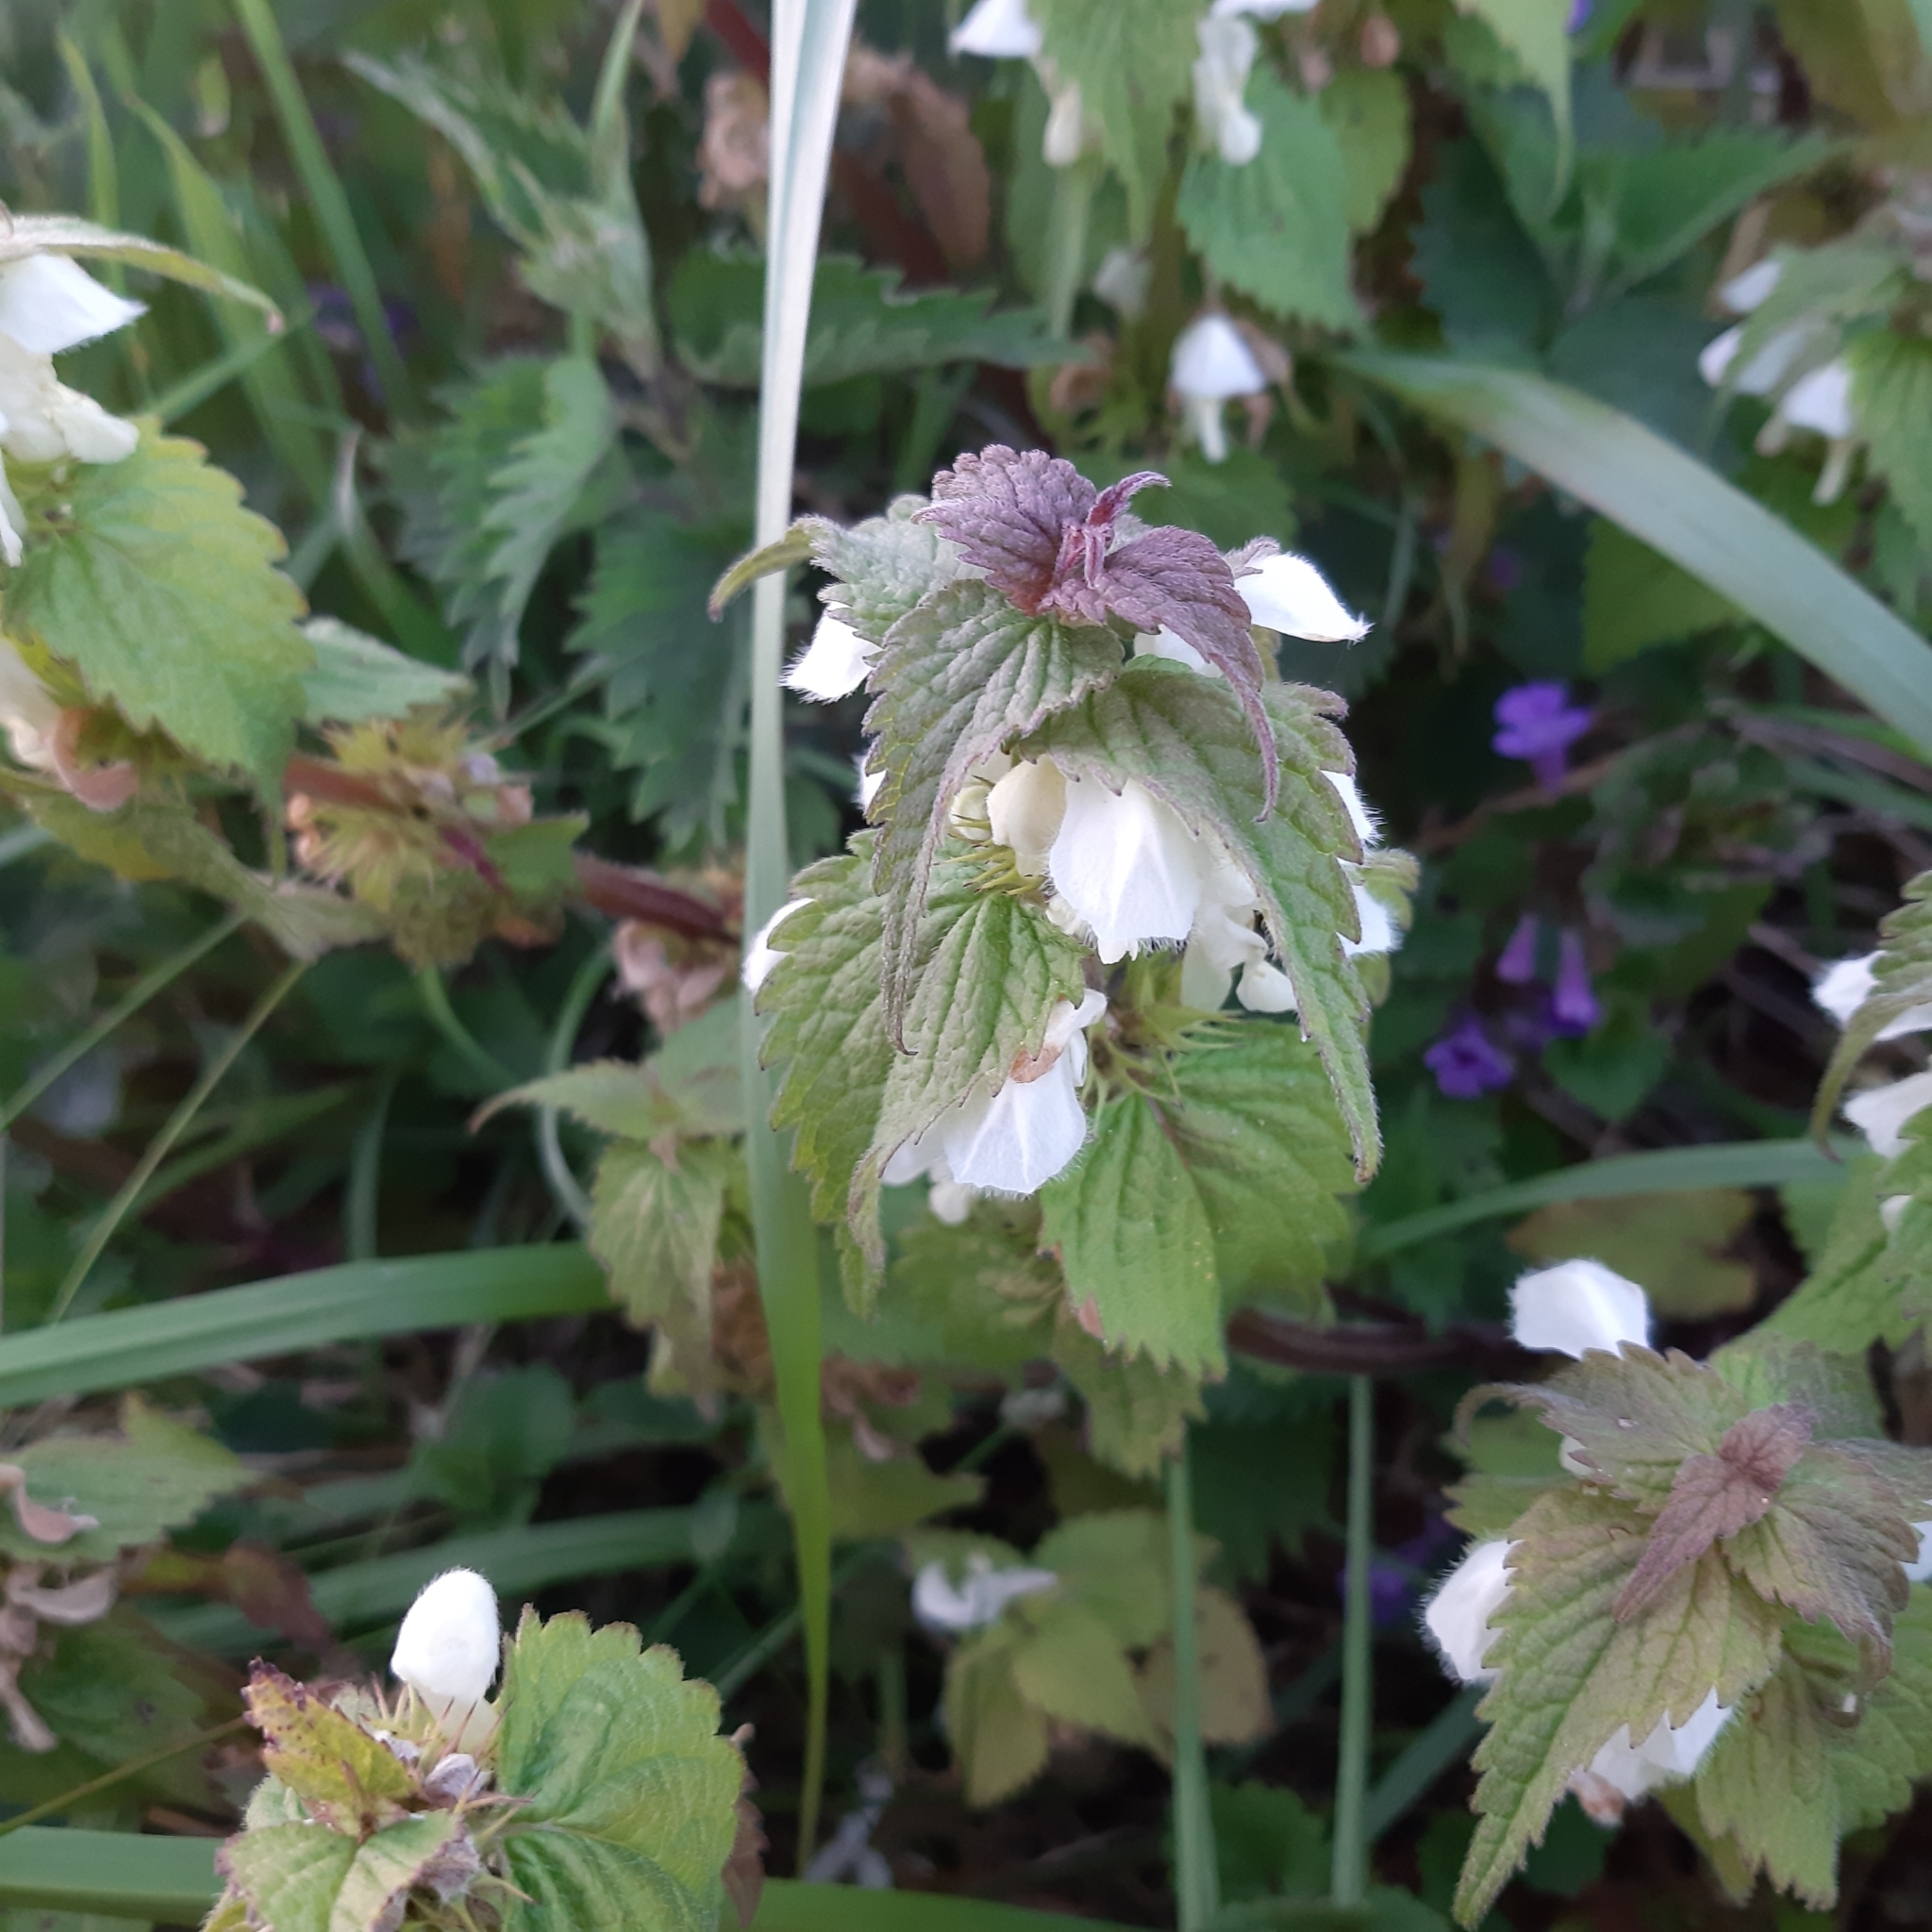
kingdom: Plantae
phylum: Tracheophyta
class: Magnoliopsida
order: Lamiales
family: Lamiaceae
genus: Lamium
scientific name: Lamium purpureum
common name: Red dead-nettle
